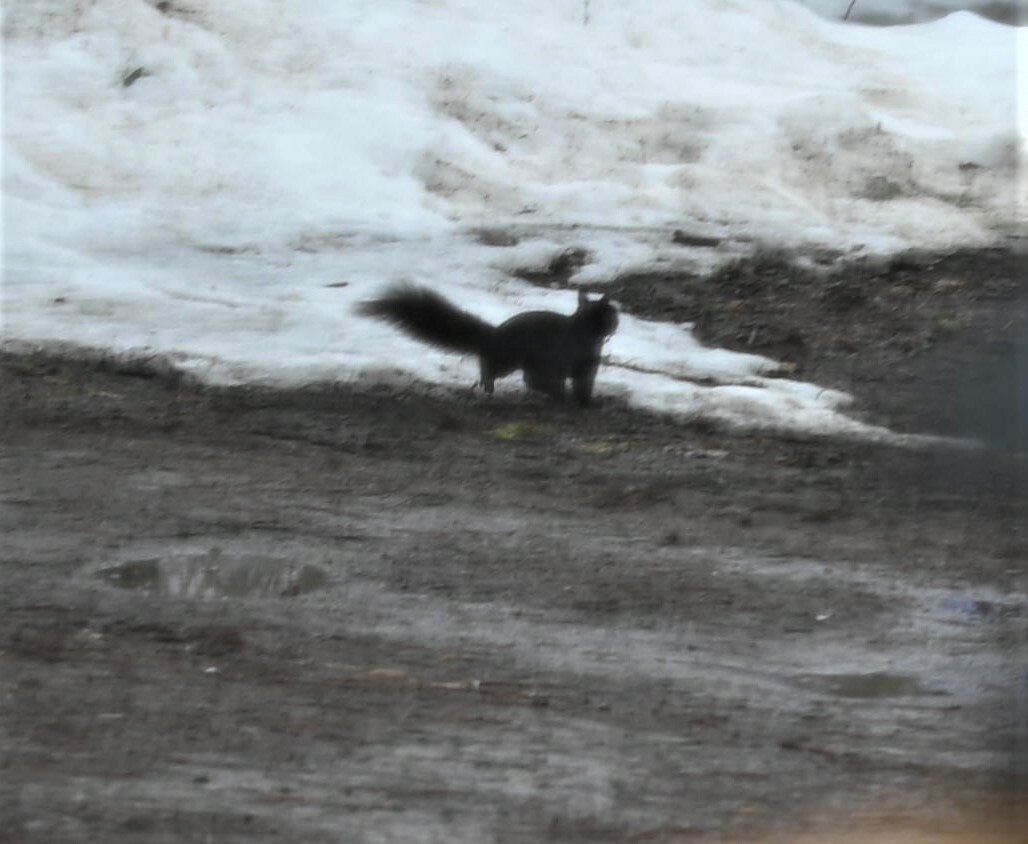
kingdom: Animalia
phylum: Chordata
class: Mammalia
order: Rodentia
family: Sciuridae
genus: Sciurus
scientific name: Sciurus carolinensis
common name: Eastern gray squirrel
